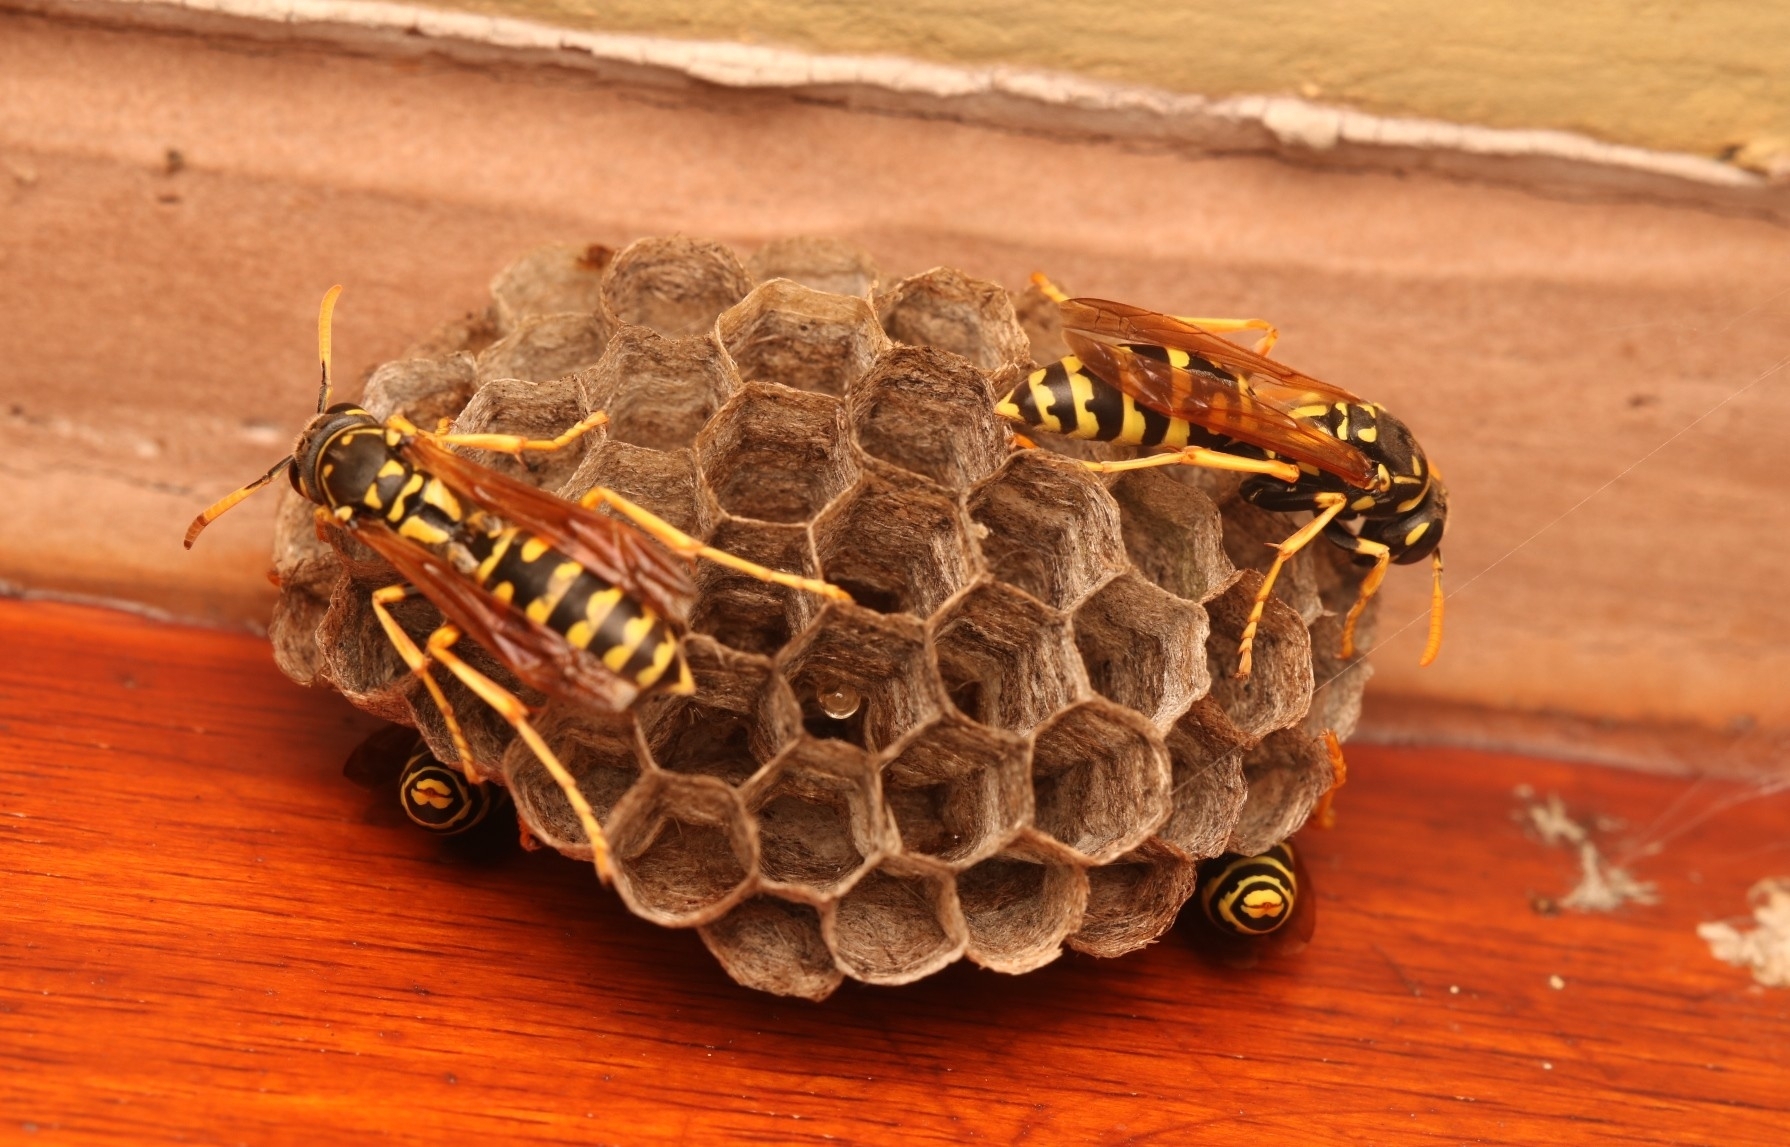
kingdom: Animalia
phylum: Arthropoda
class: Insecta
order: Hymenoptera
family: Eumenidae
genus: Polistes
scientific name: Polistes dominula
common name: Paper wasp
